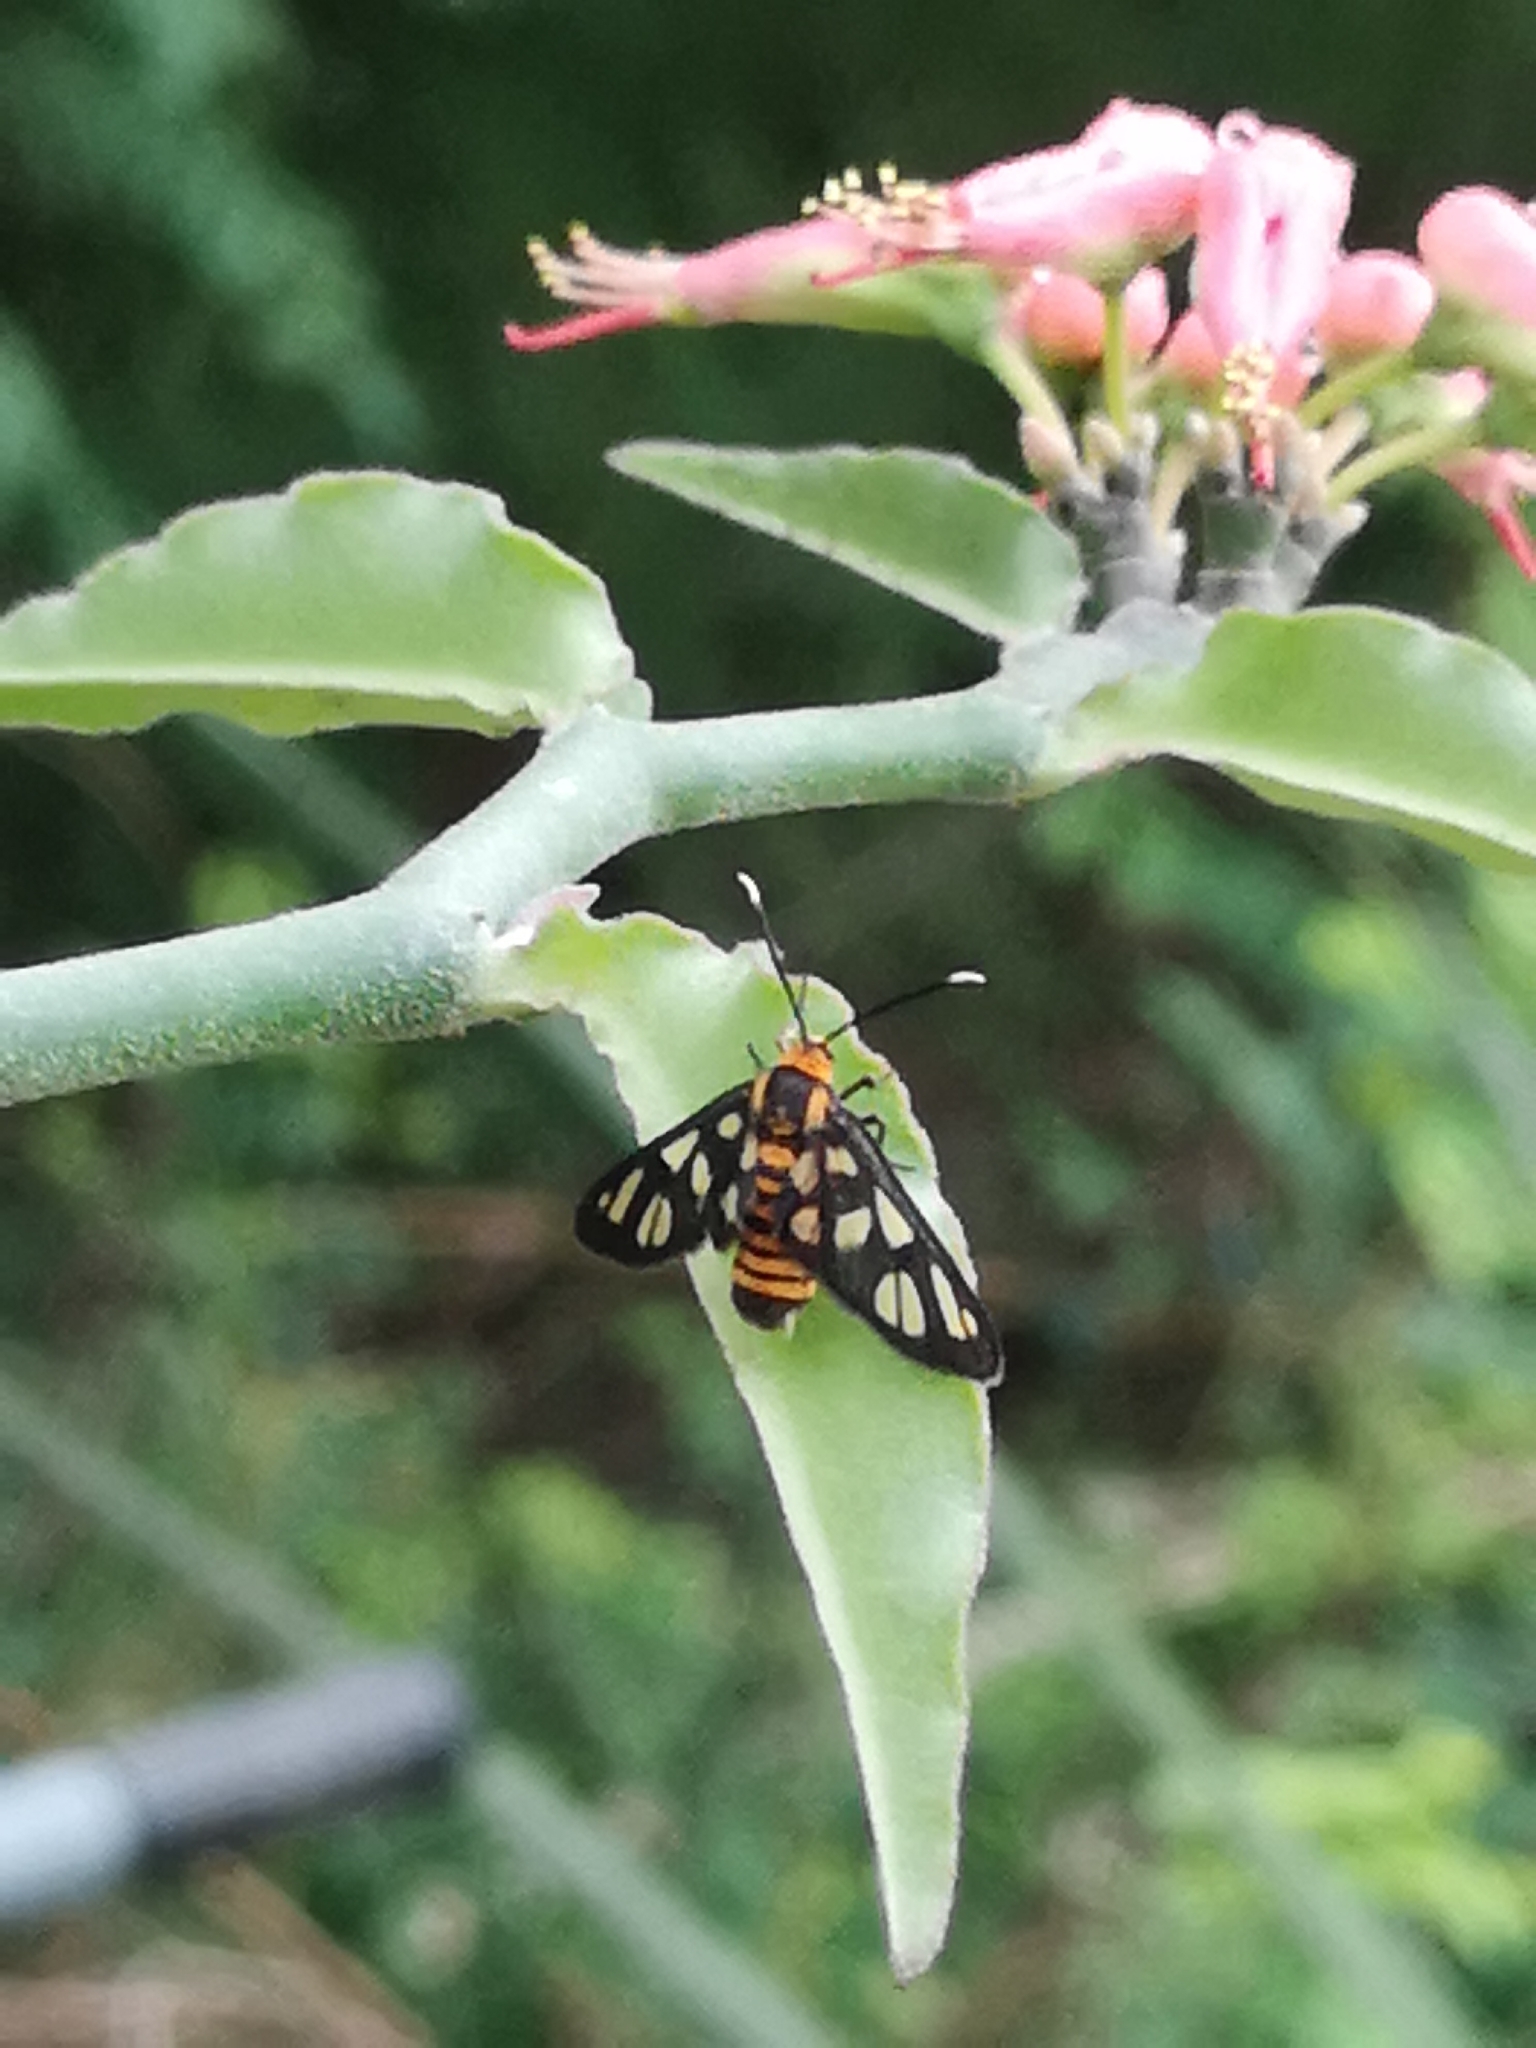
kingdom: Animalia
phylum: Arthropoda
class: Insecta
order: Lepidoptera
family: Erebidae
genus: Amata
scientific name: Amata huebneri
